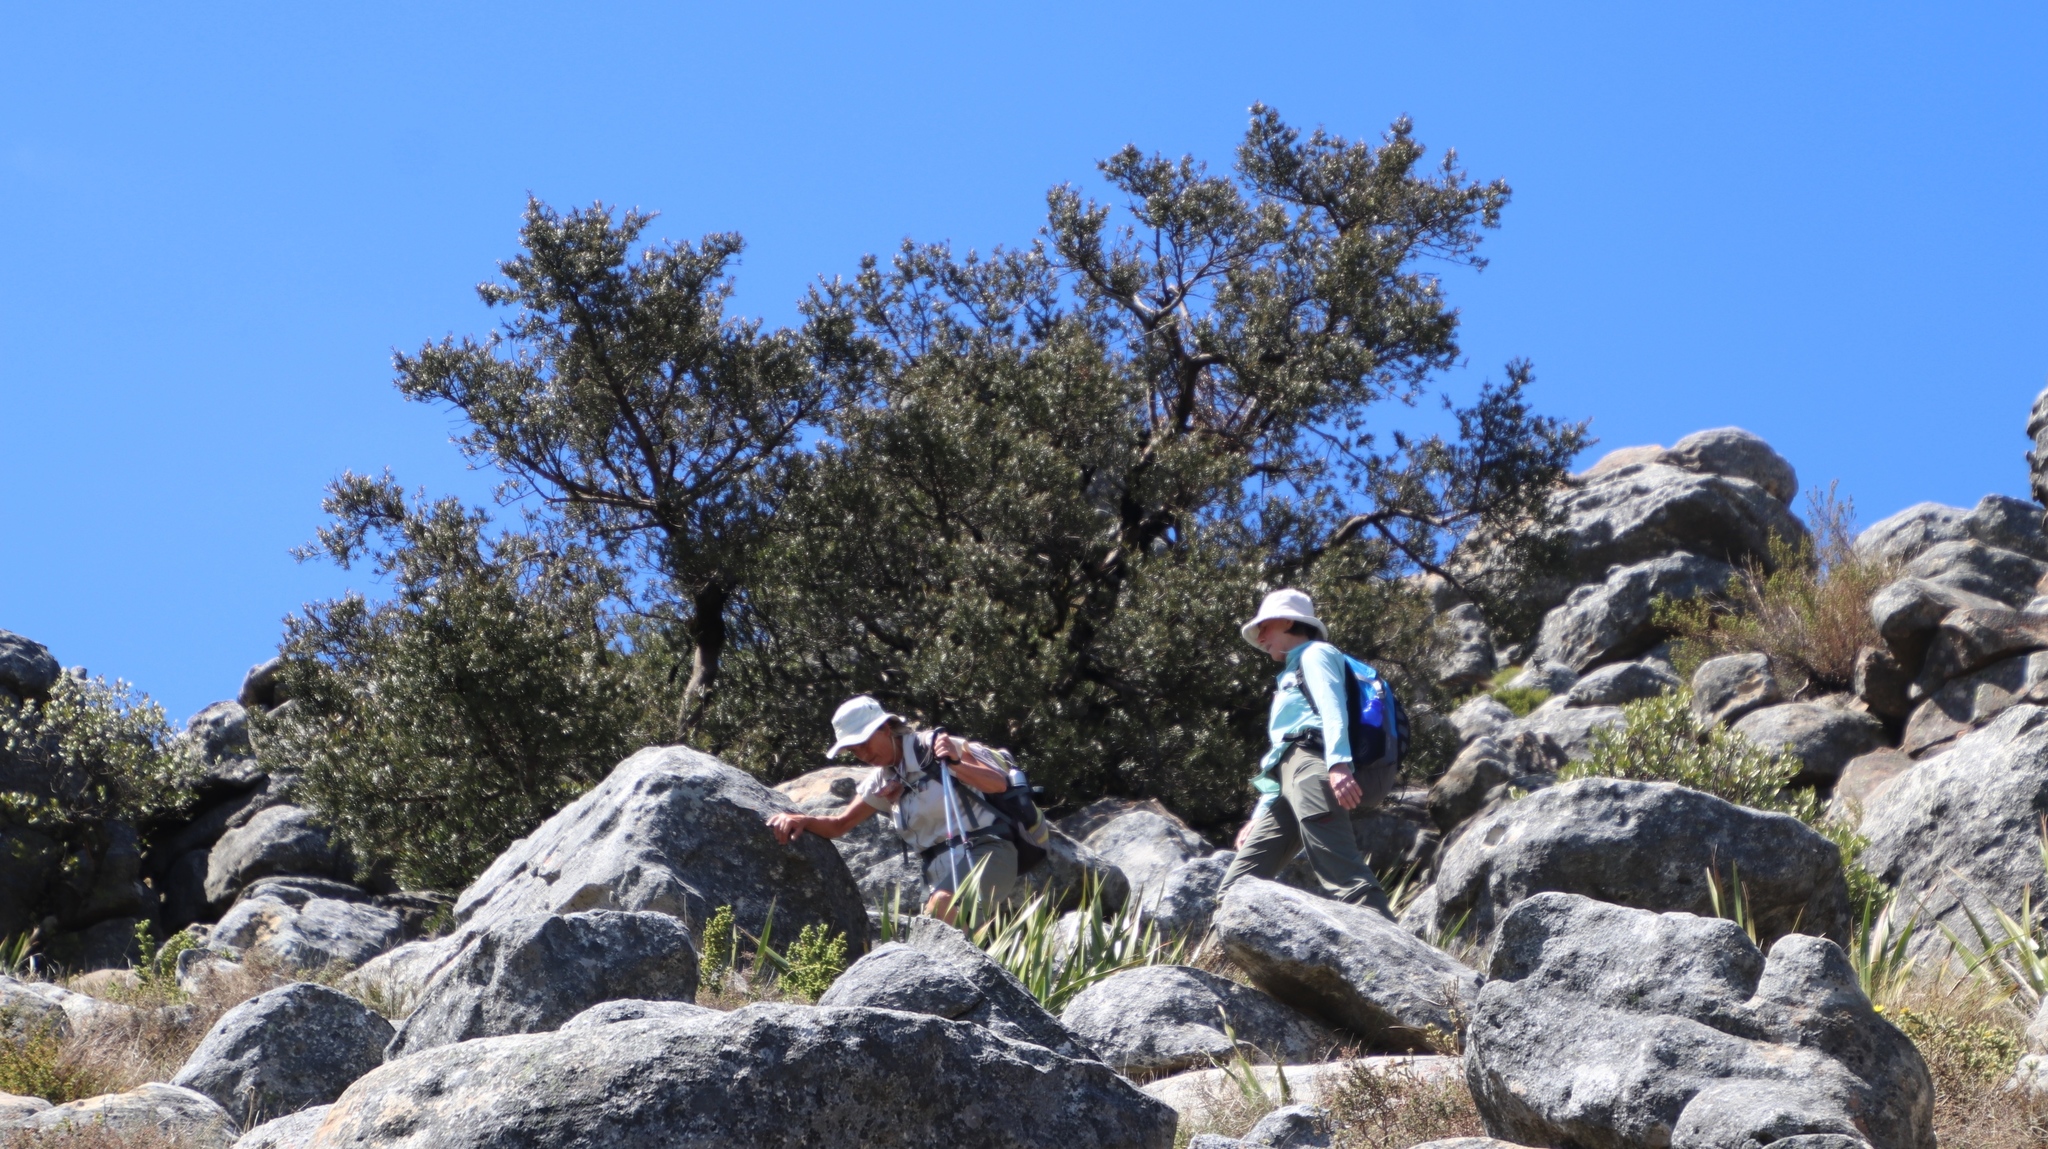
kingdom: Plantae
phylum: Tracheophyta
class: Pinopsida
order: Pinales
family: Podocarpaceae
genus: Podocarpus
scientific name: Podocarpus elongatus
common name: Breede river yellowwood
